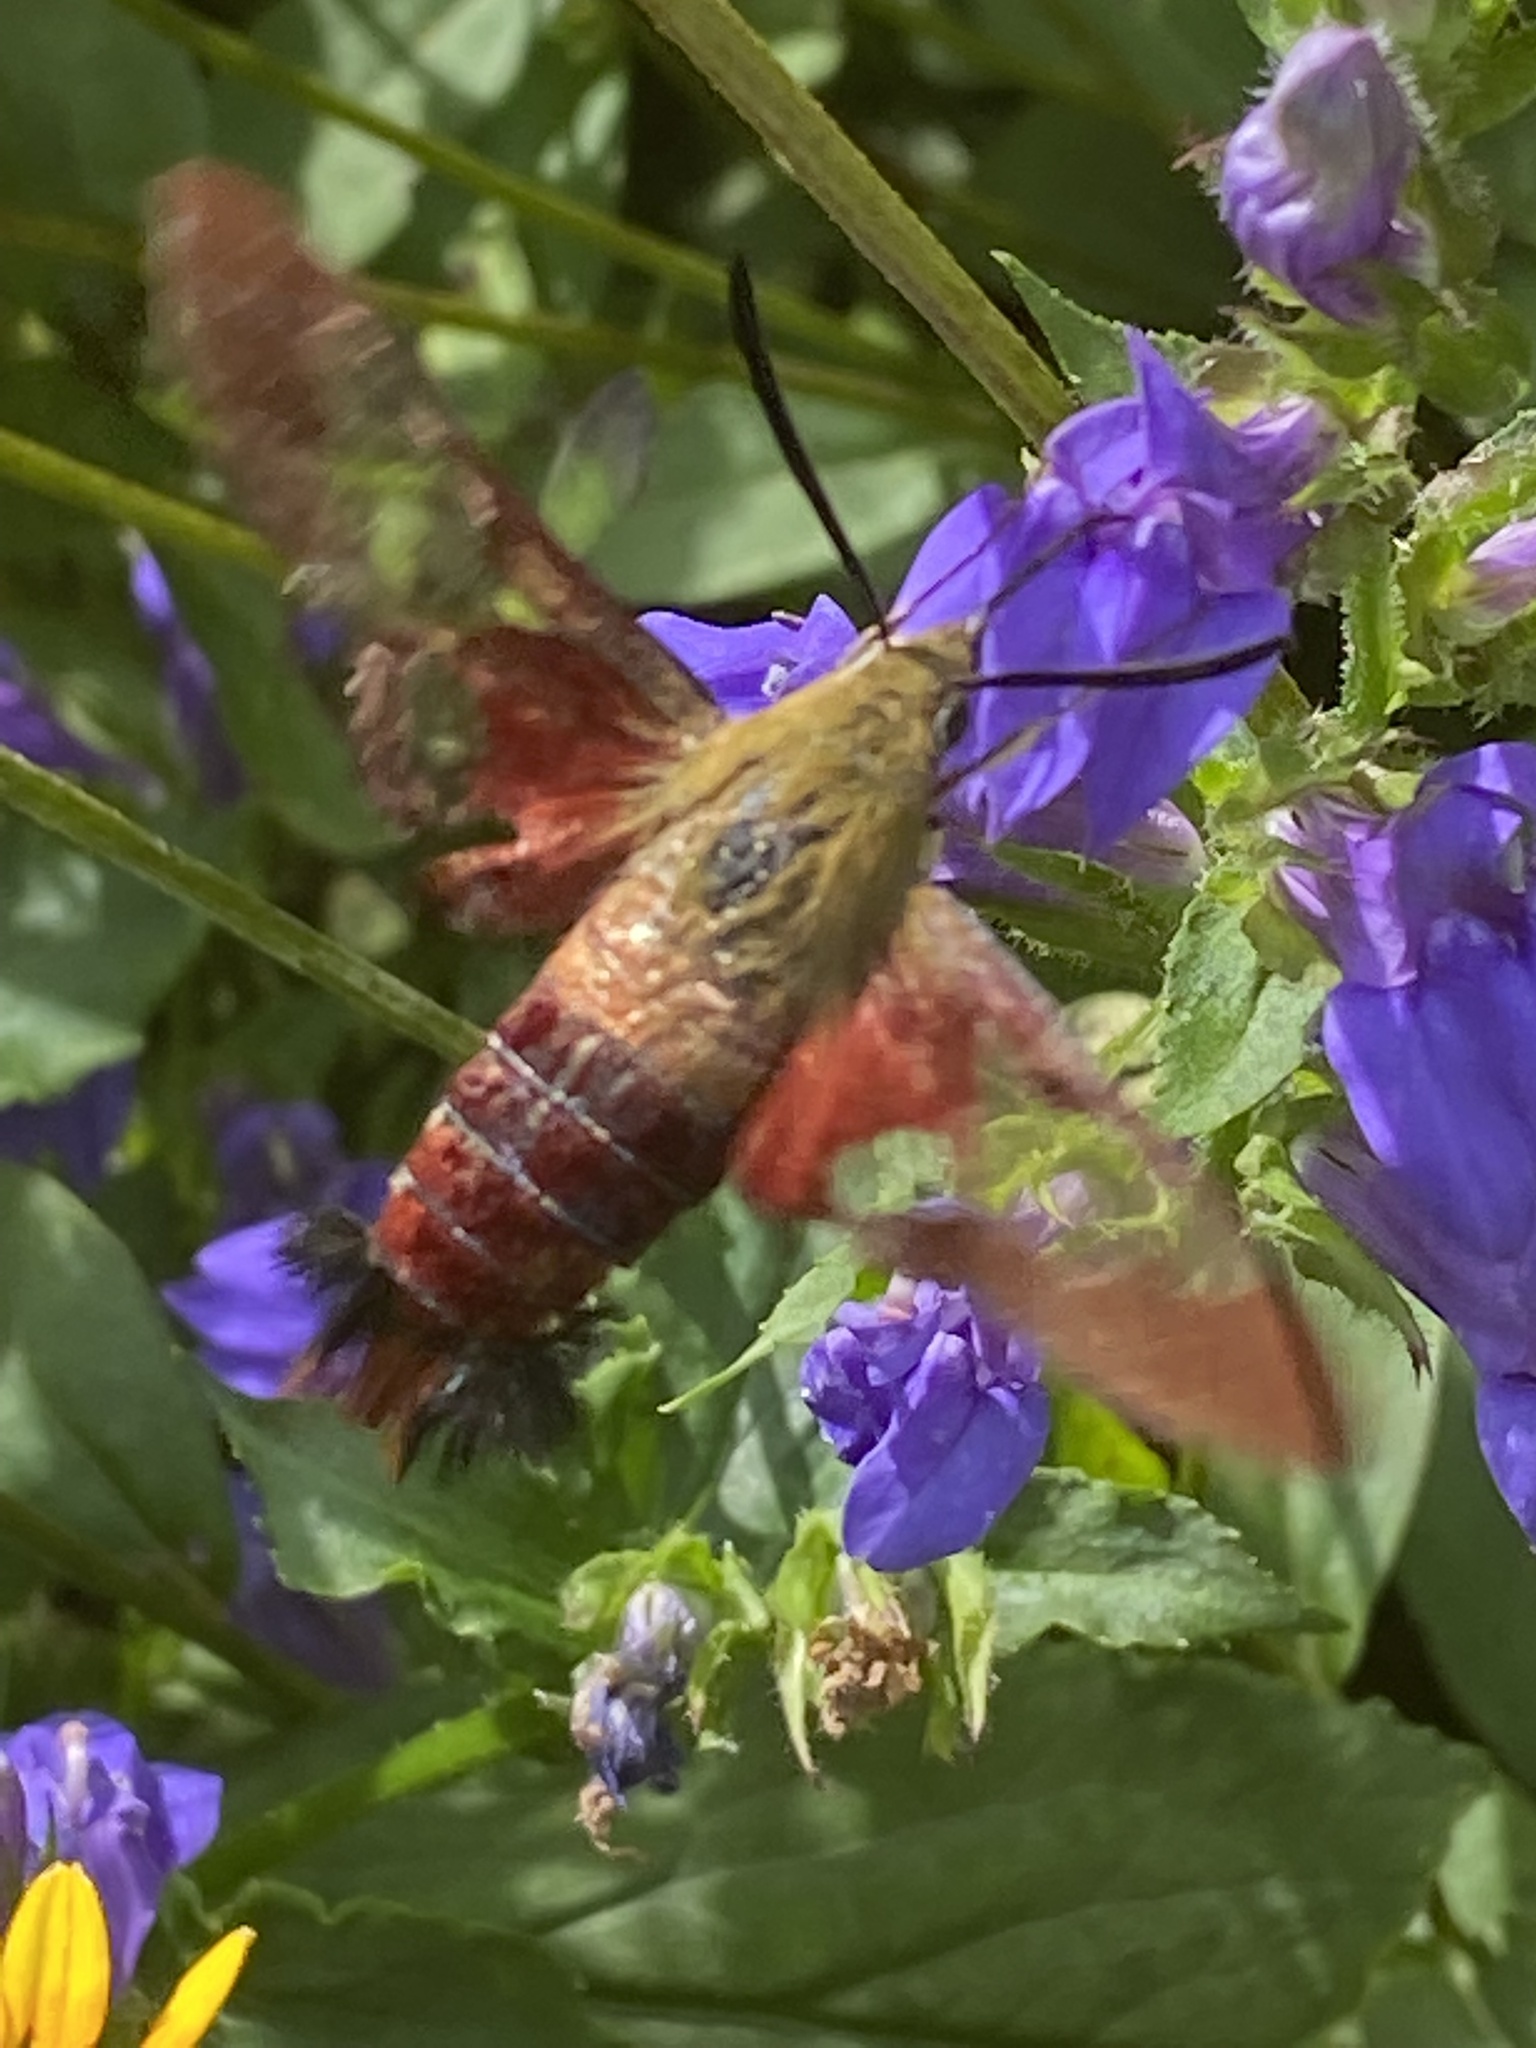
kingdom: Animalia
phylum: Arthropoda
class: Insecta
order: Lepidoptera
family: Sphingidae
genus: Hemaris
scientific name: Hemaris thysbe
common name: Common clear-wing
